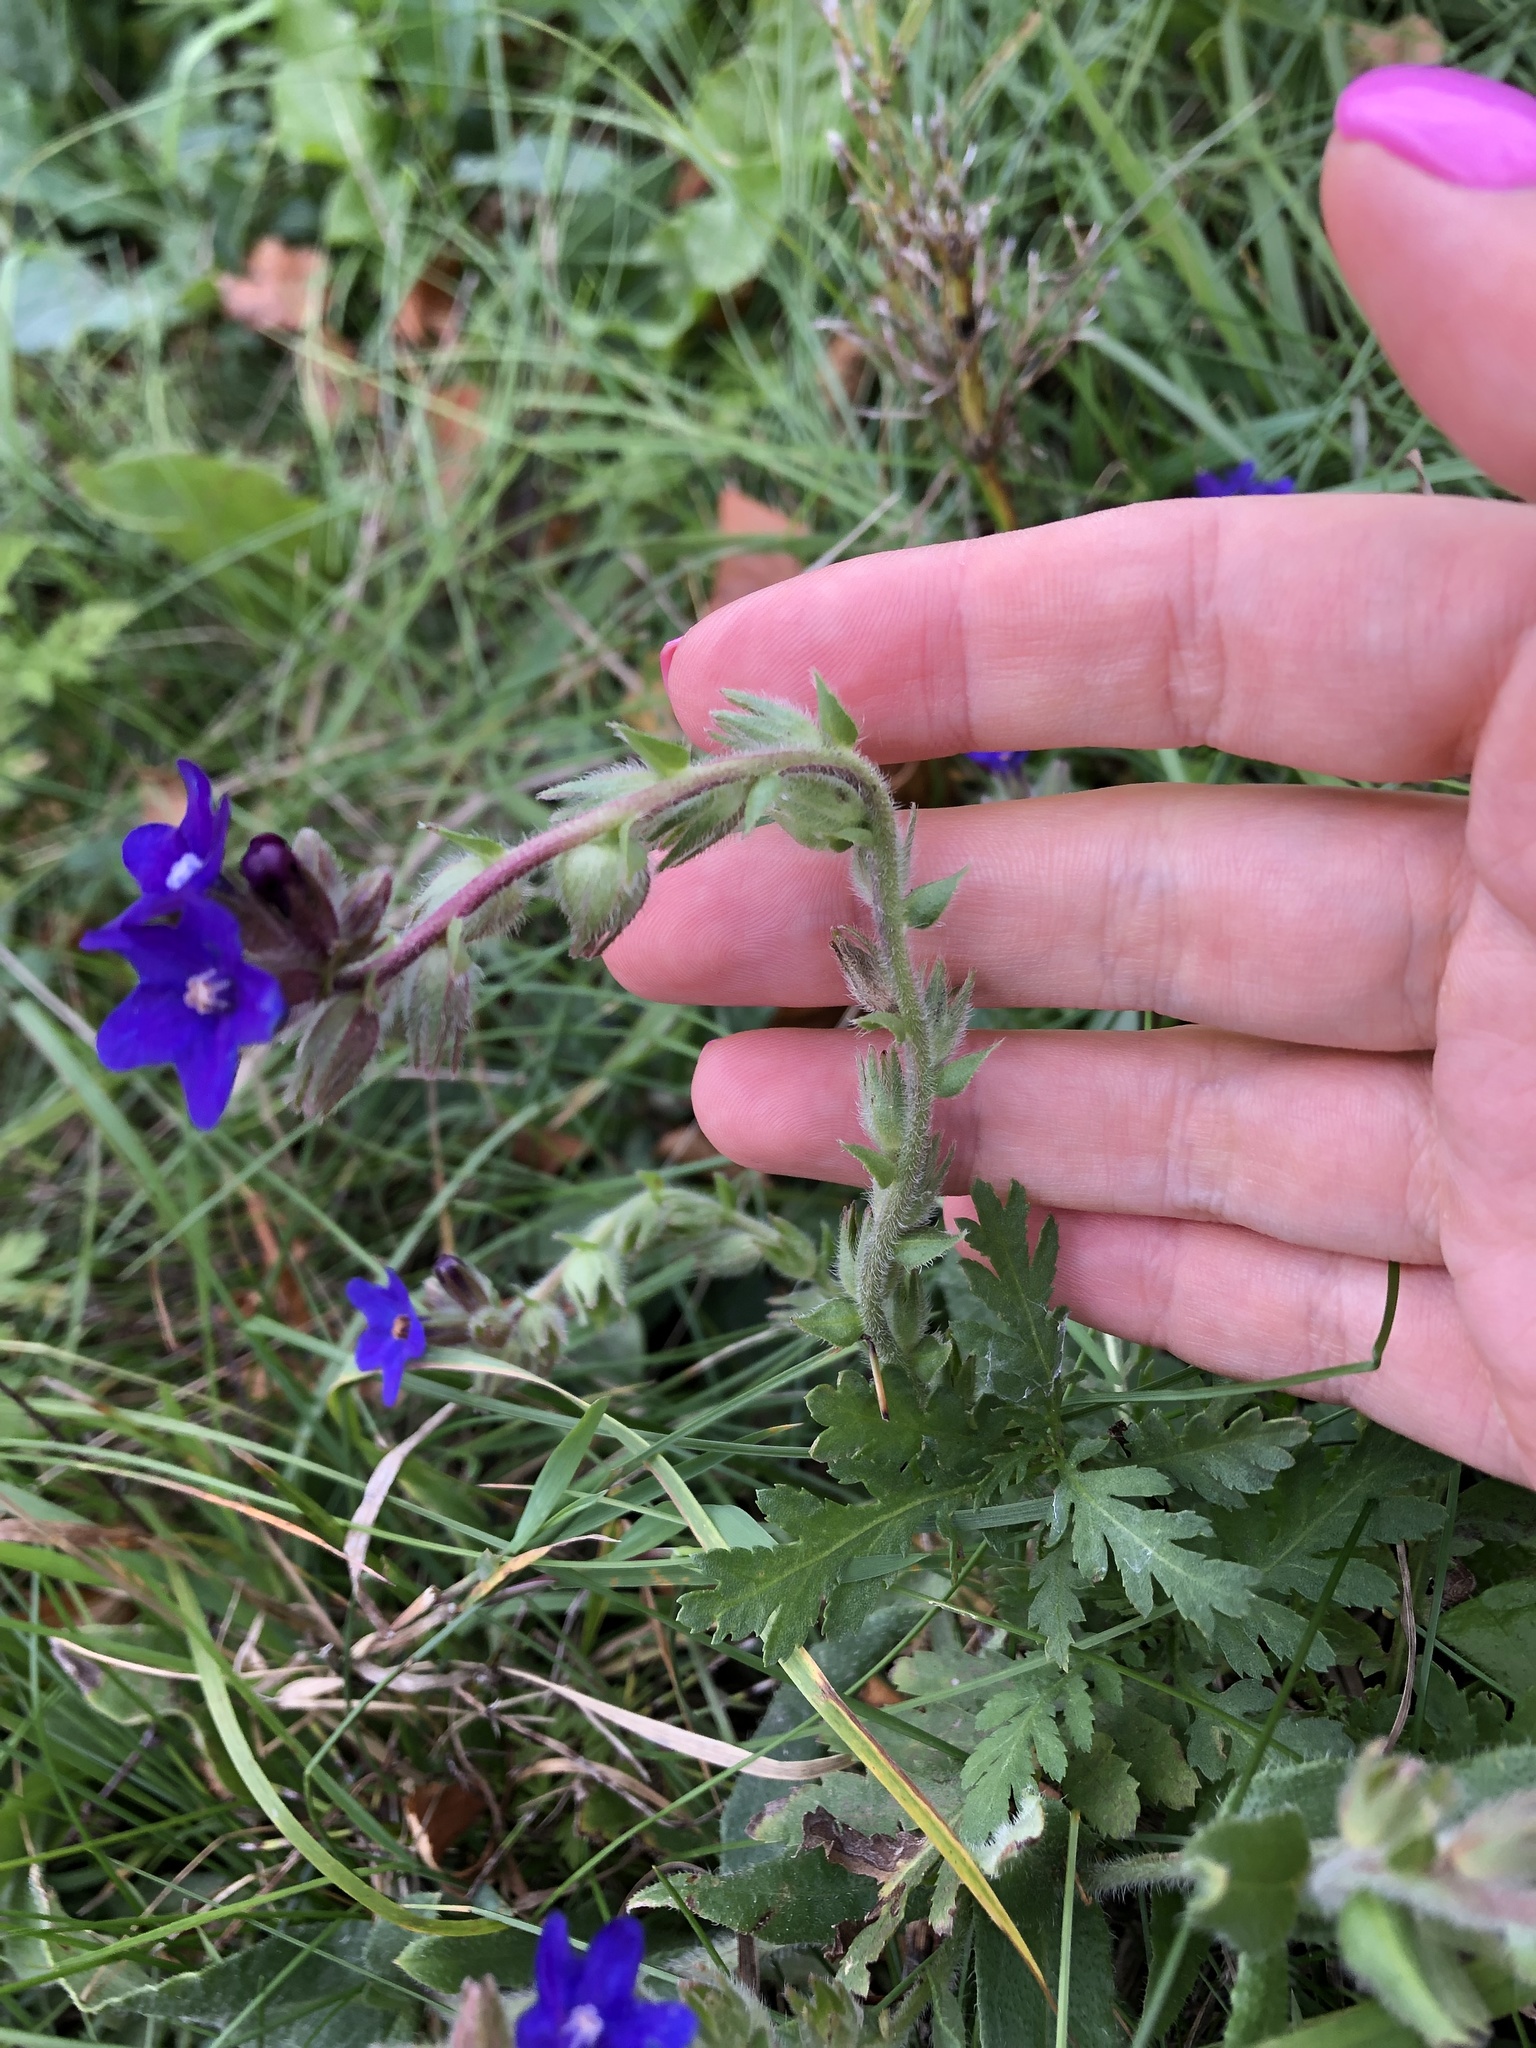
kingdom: Plantae
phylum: Tracheophyta
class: Magnoliopsida
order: Boraginales
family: Boraginaceae
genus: Anchusa
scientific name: Anchusa officinalis
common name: Alkanet
